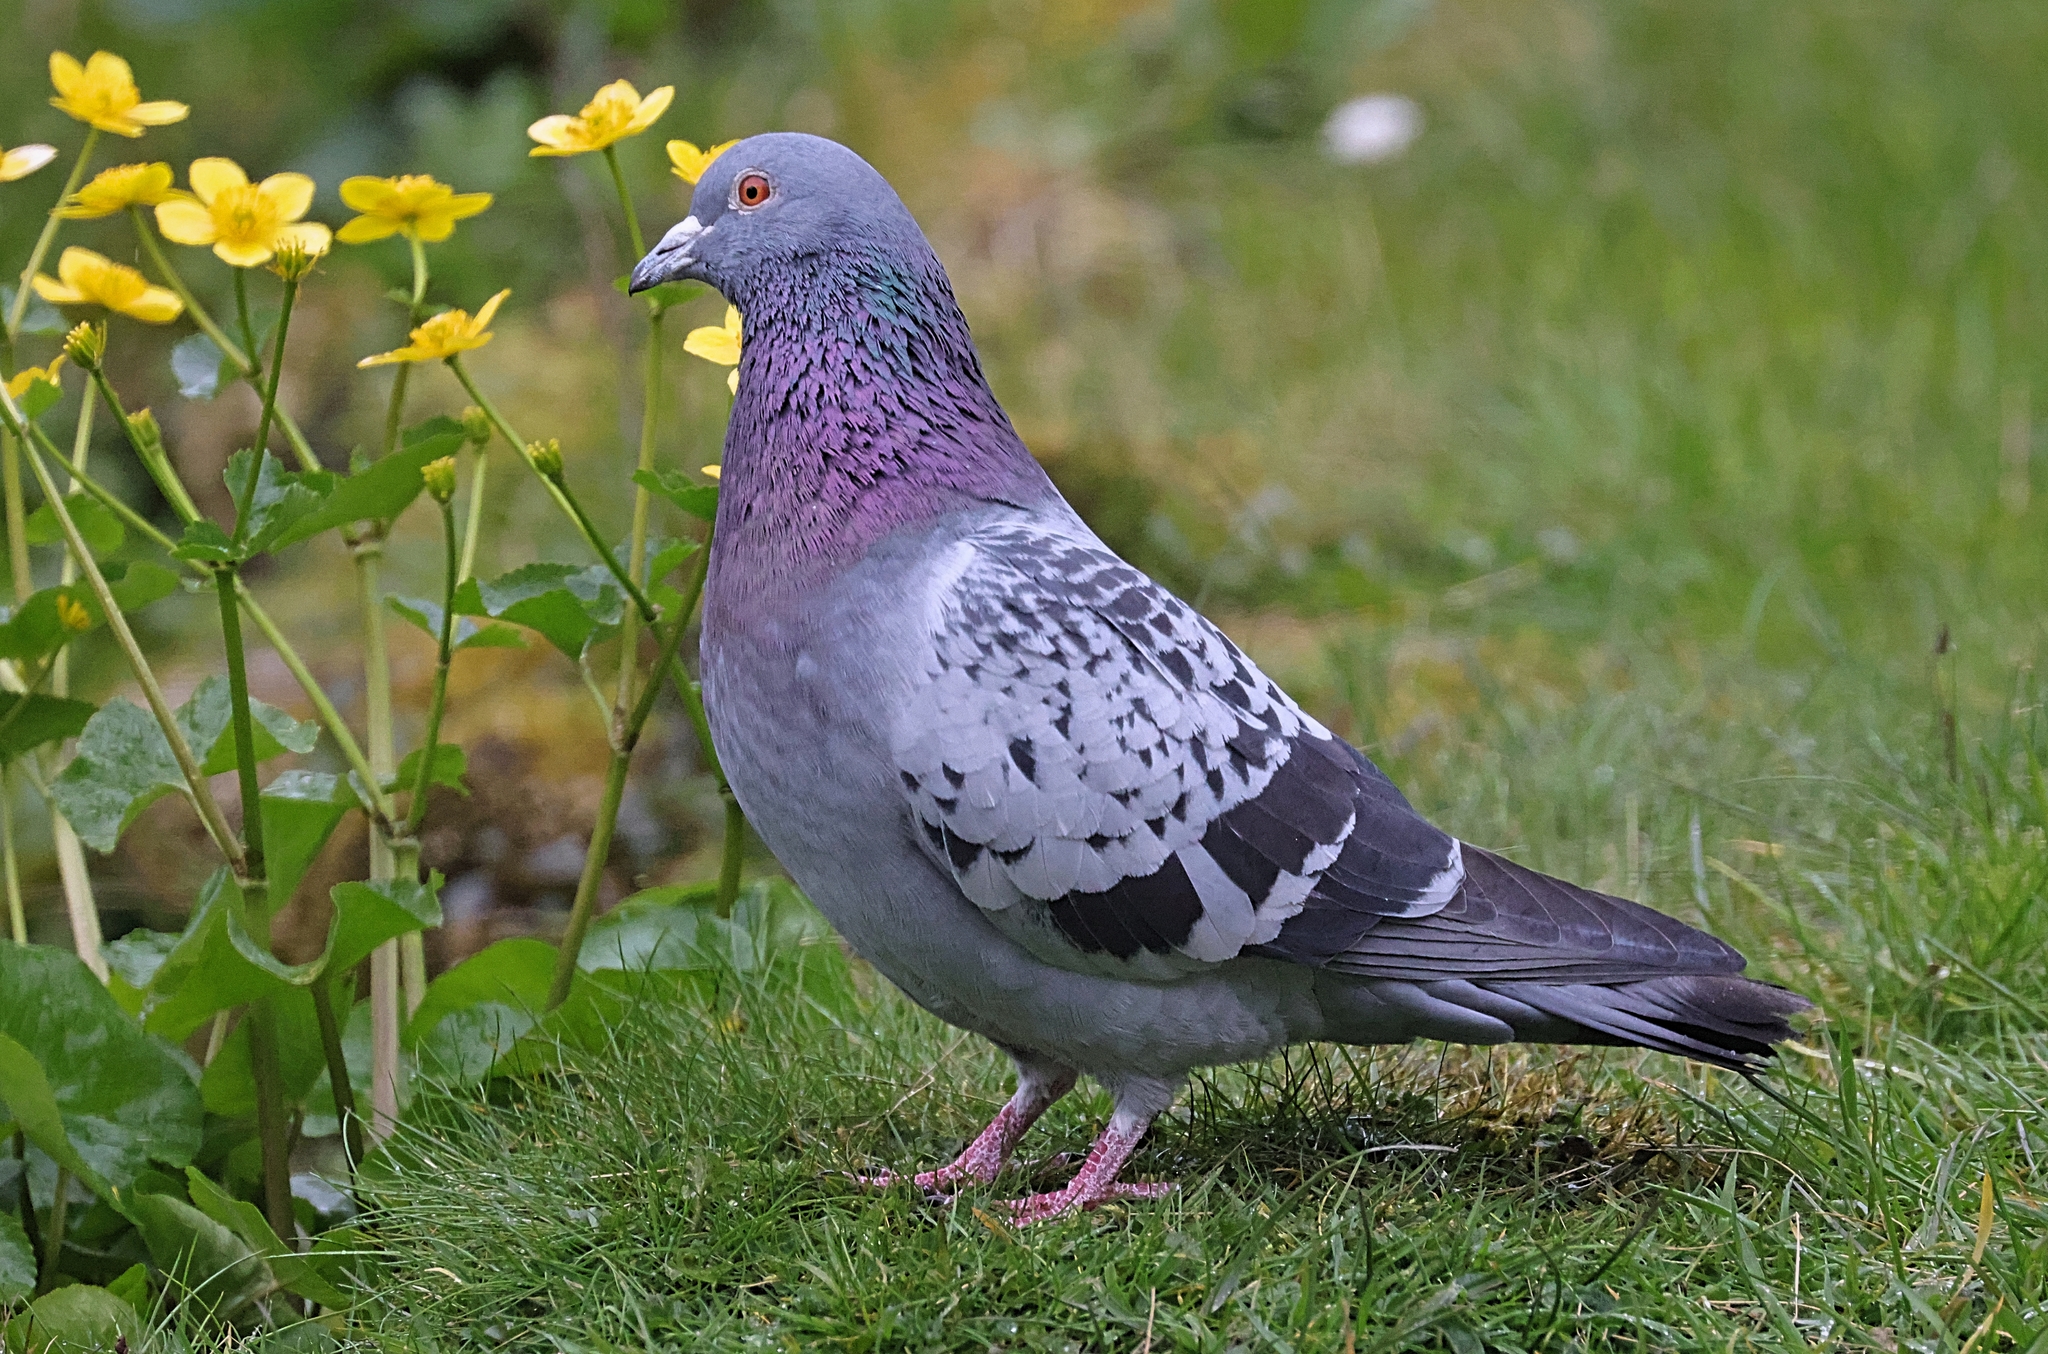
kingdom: Animalia
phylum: Chordata
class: Aves
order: Columbiformes
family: Columbidae
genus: Columba
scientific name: Columba livia
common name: Rock pigeon
